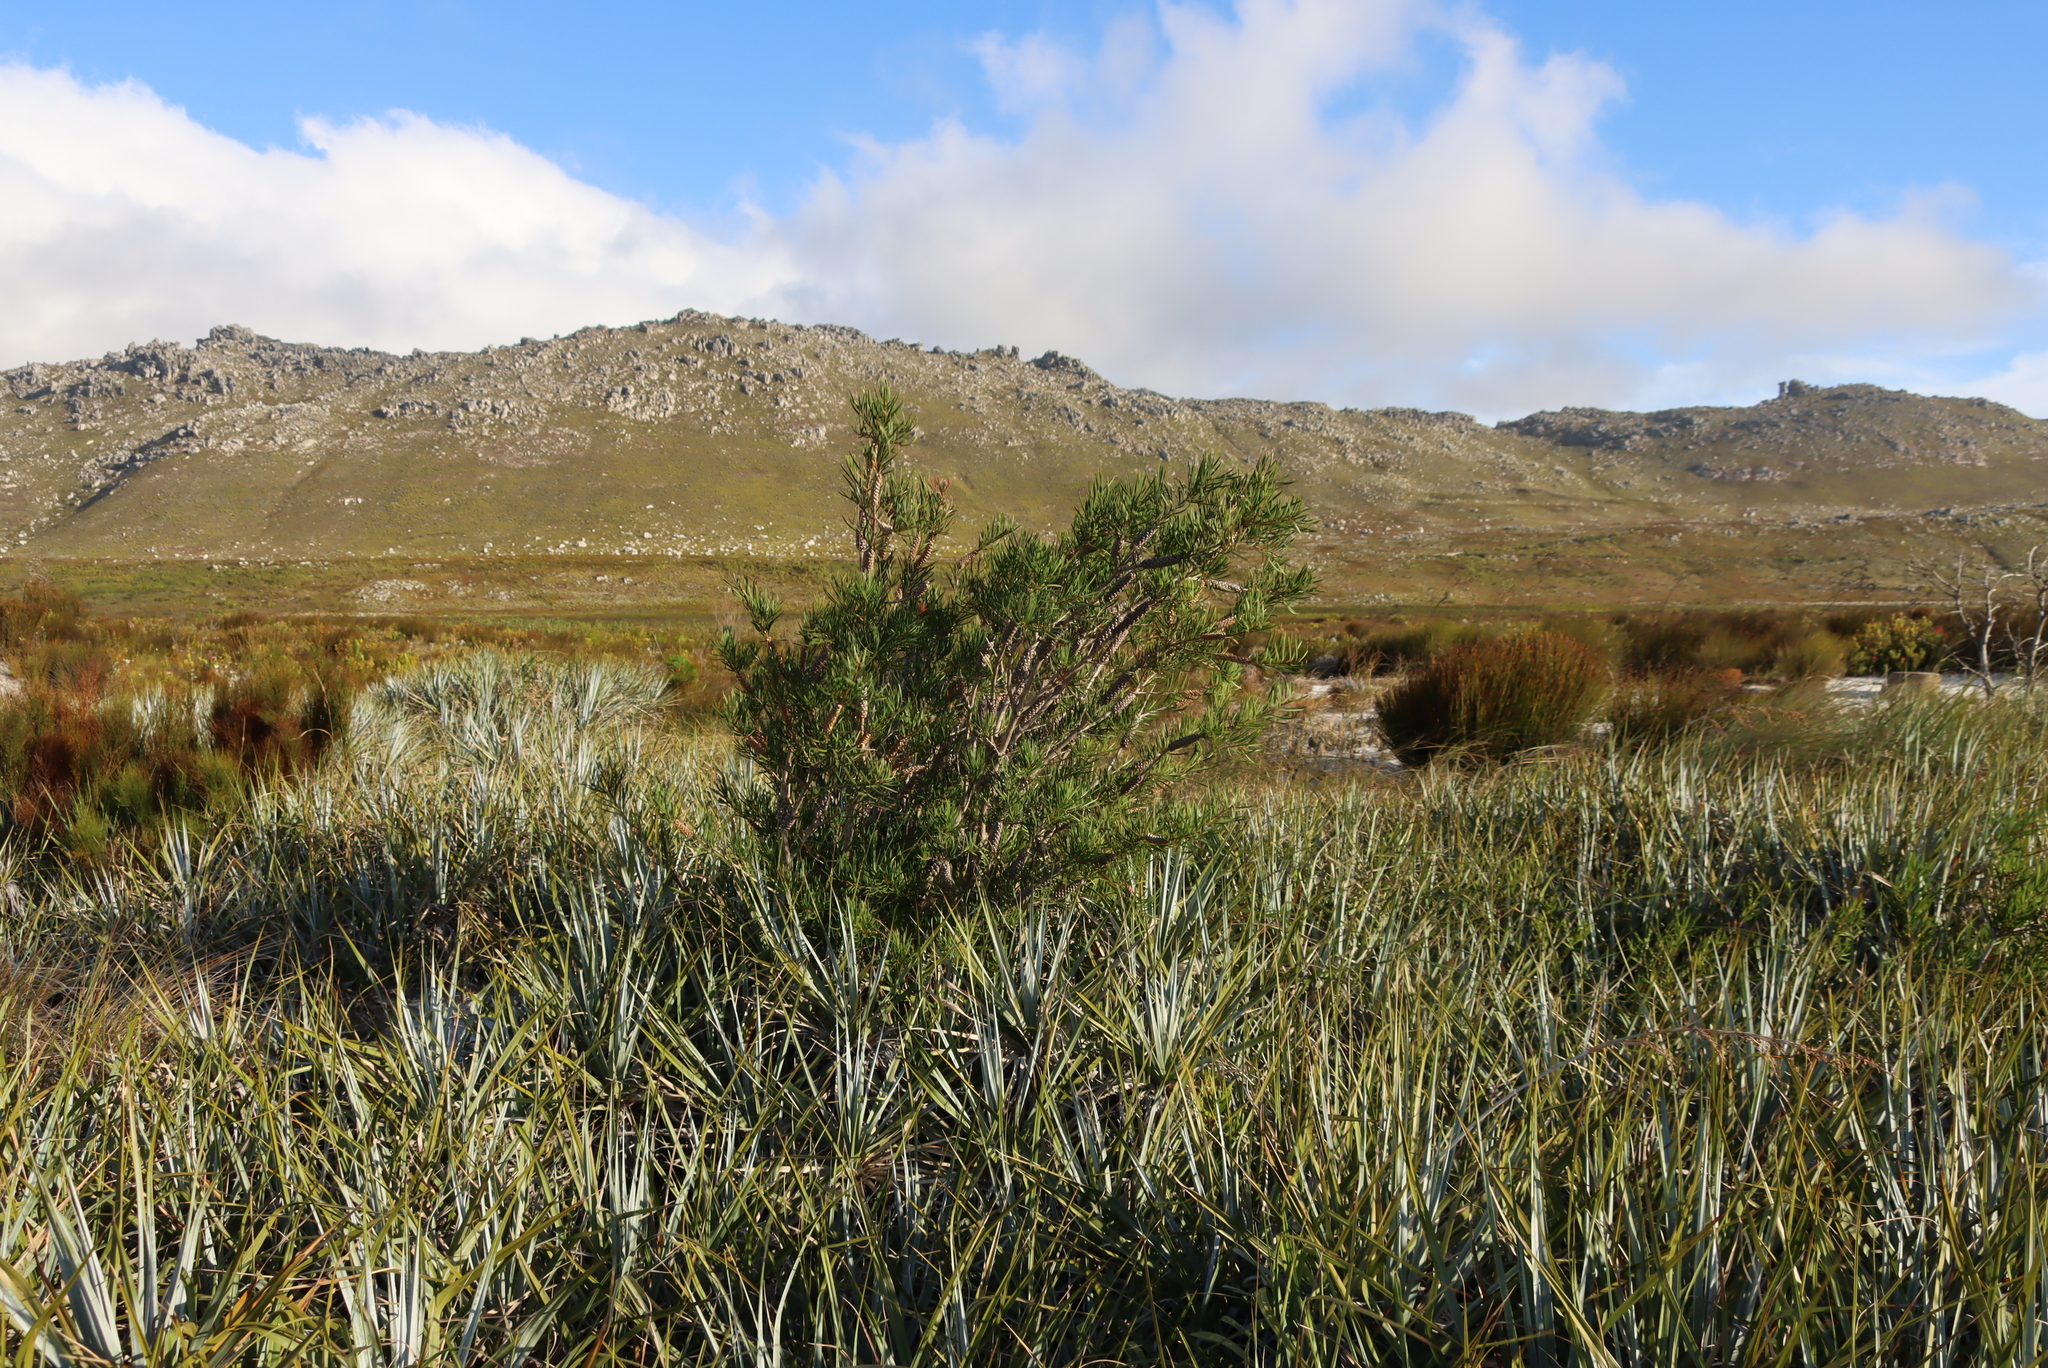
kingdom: Plantae
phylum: Tracheophyta
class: Magnoliopsida
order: Myrtales
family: Myrtaceae
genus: Callistemon
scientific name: Callistemon linearis
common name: Narrow-leaf bottlebrush
